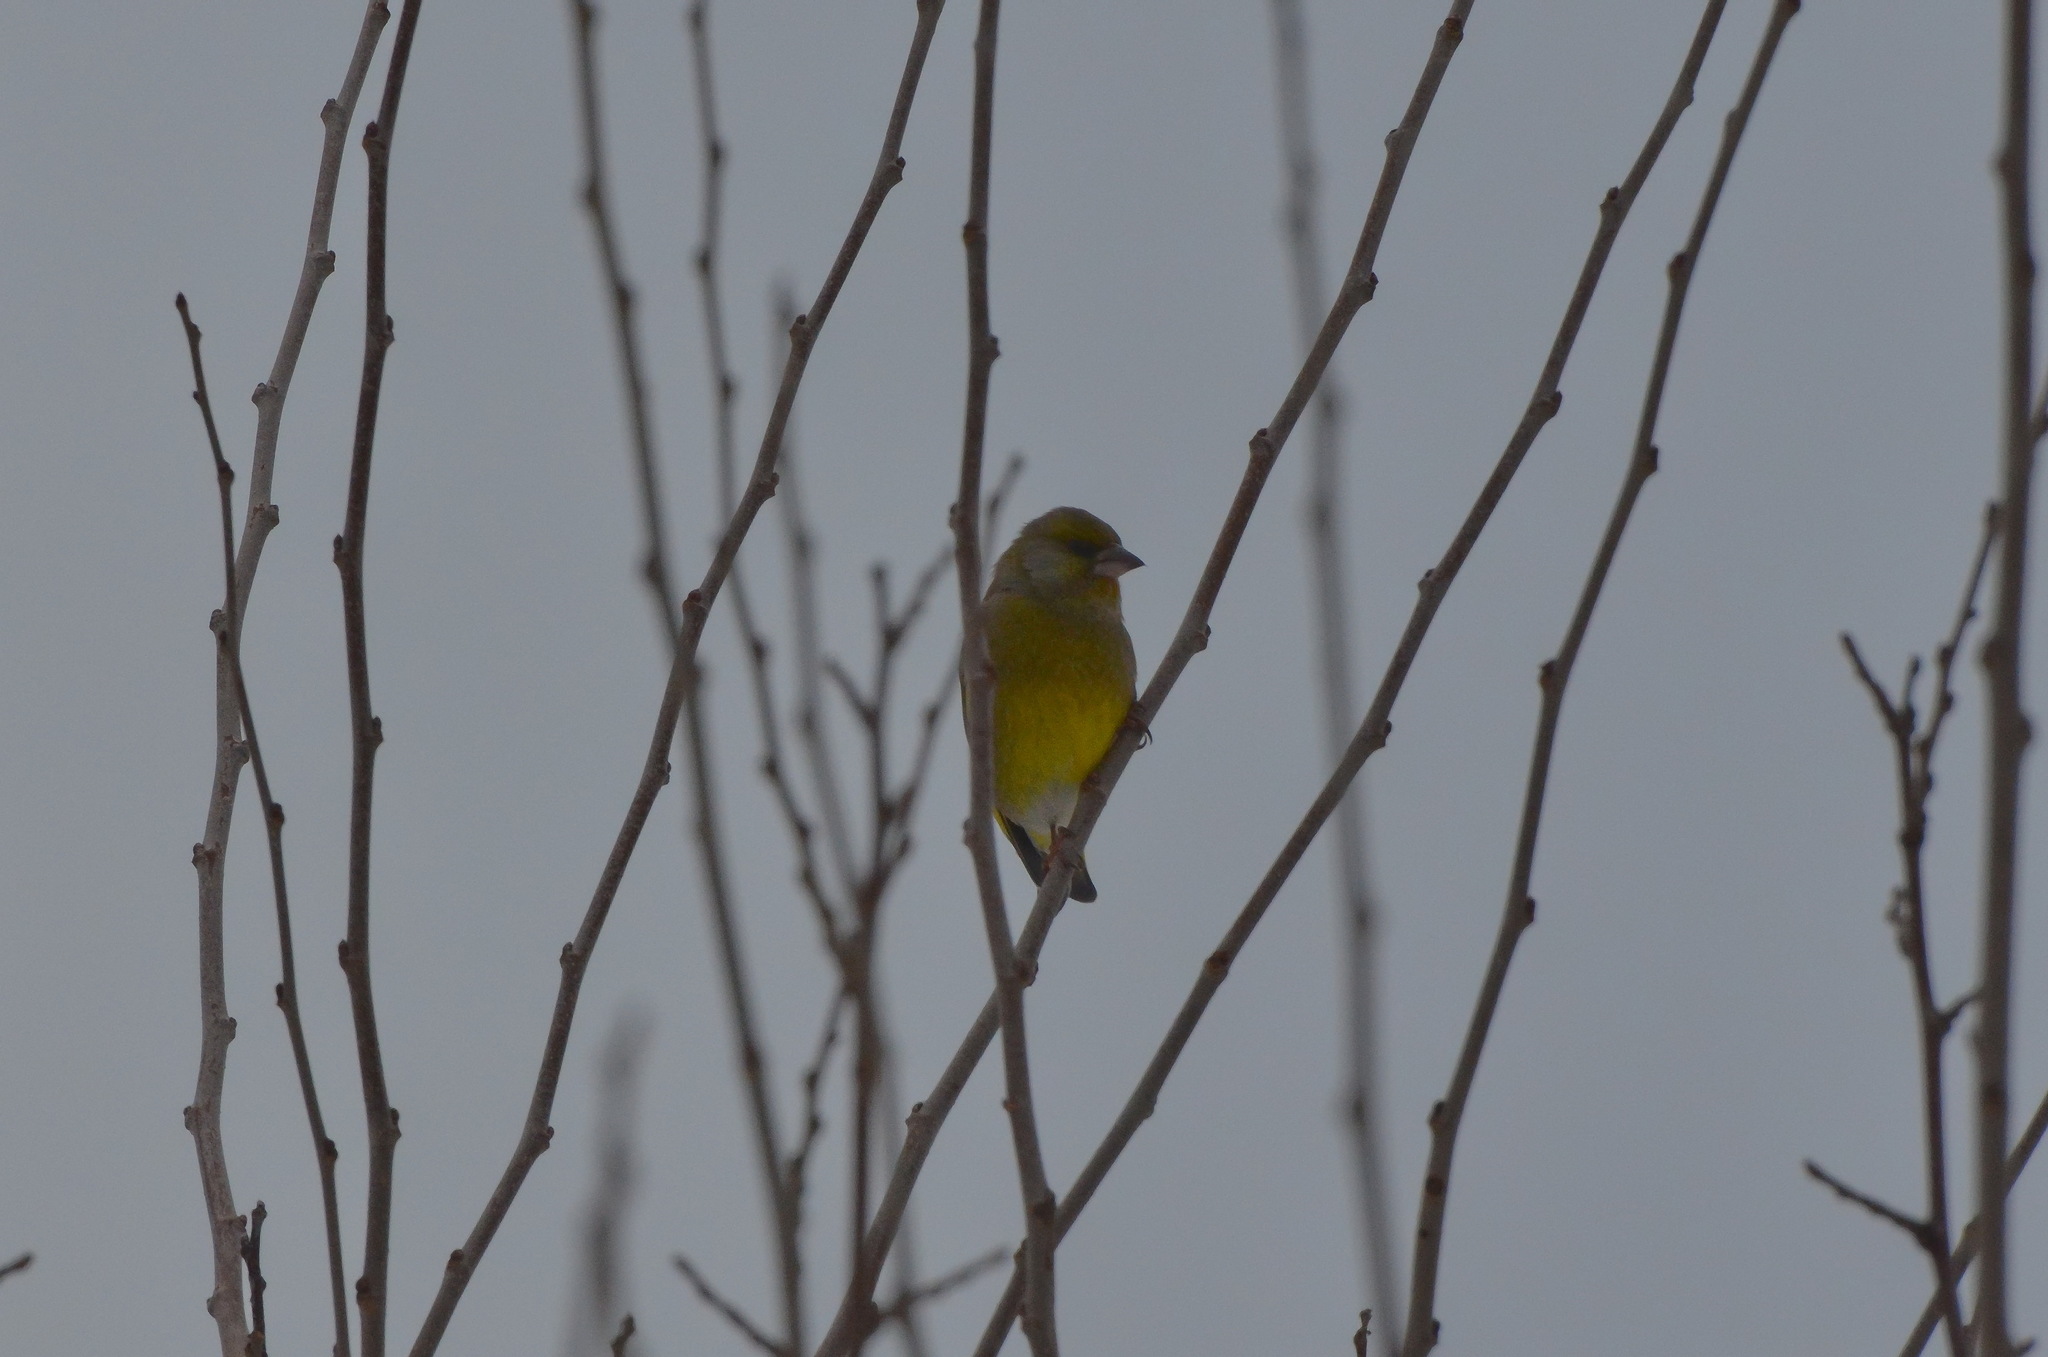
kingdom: Plantae
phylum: Tracheophyta
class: Liliopsida
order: Poales
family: Poaceae
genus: Chloris
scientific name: Chloris chloris
